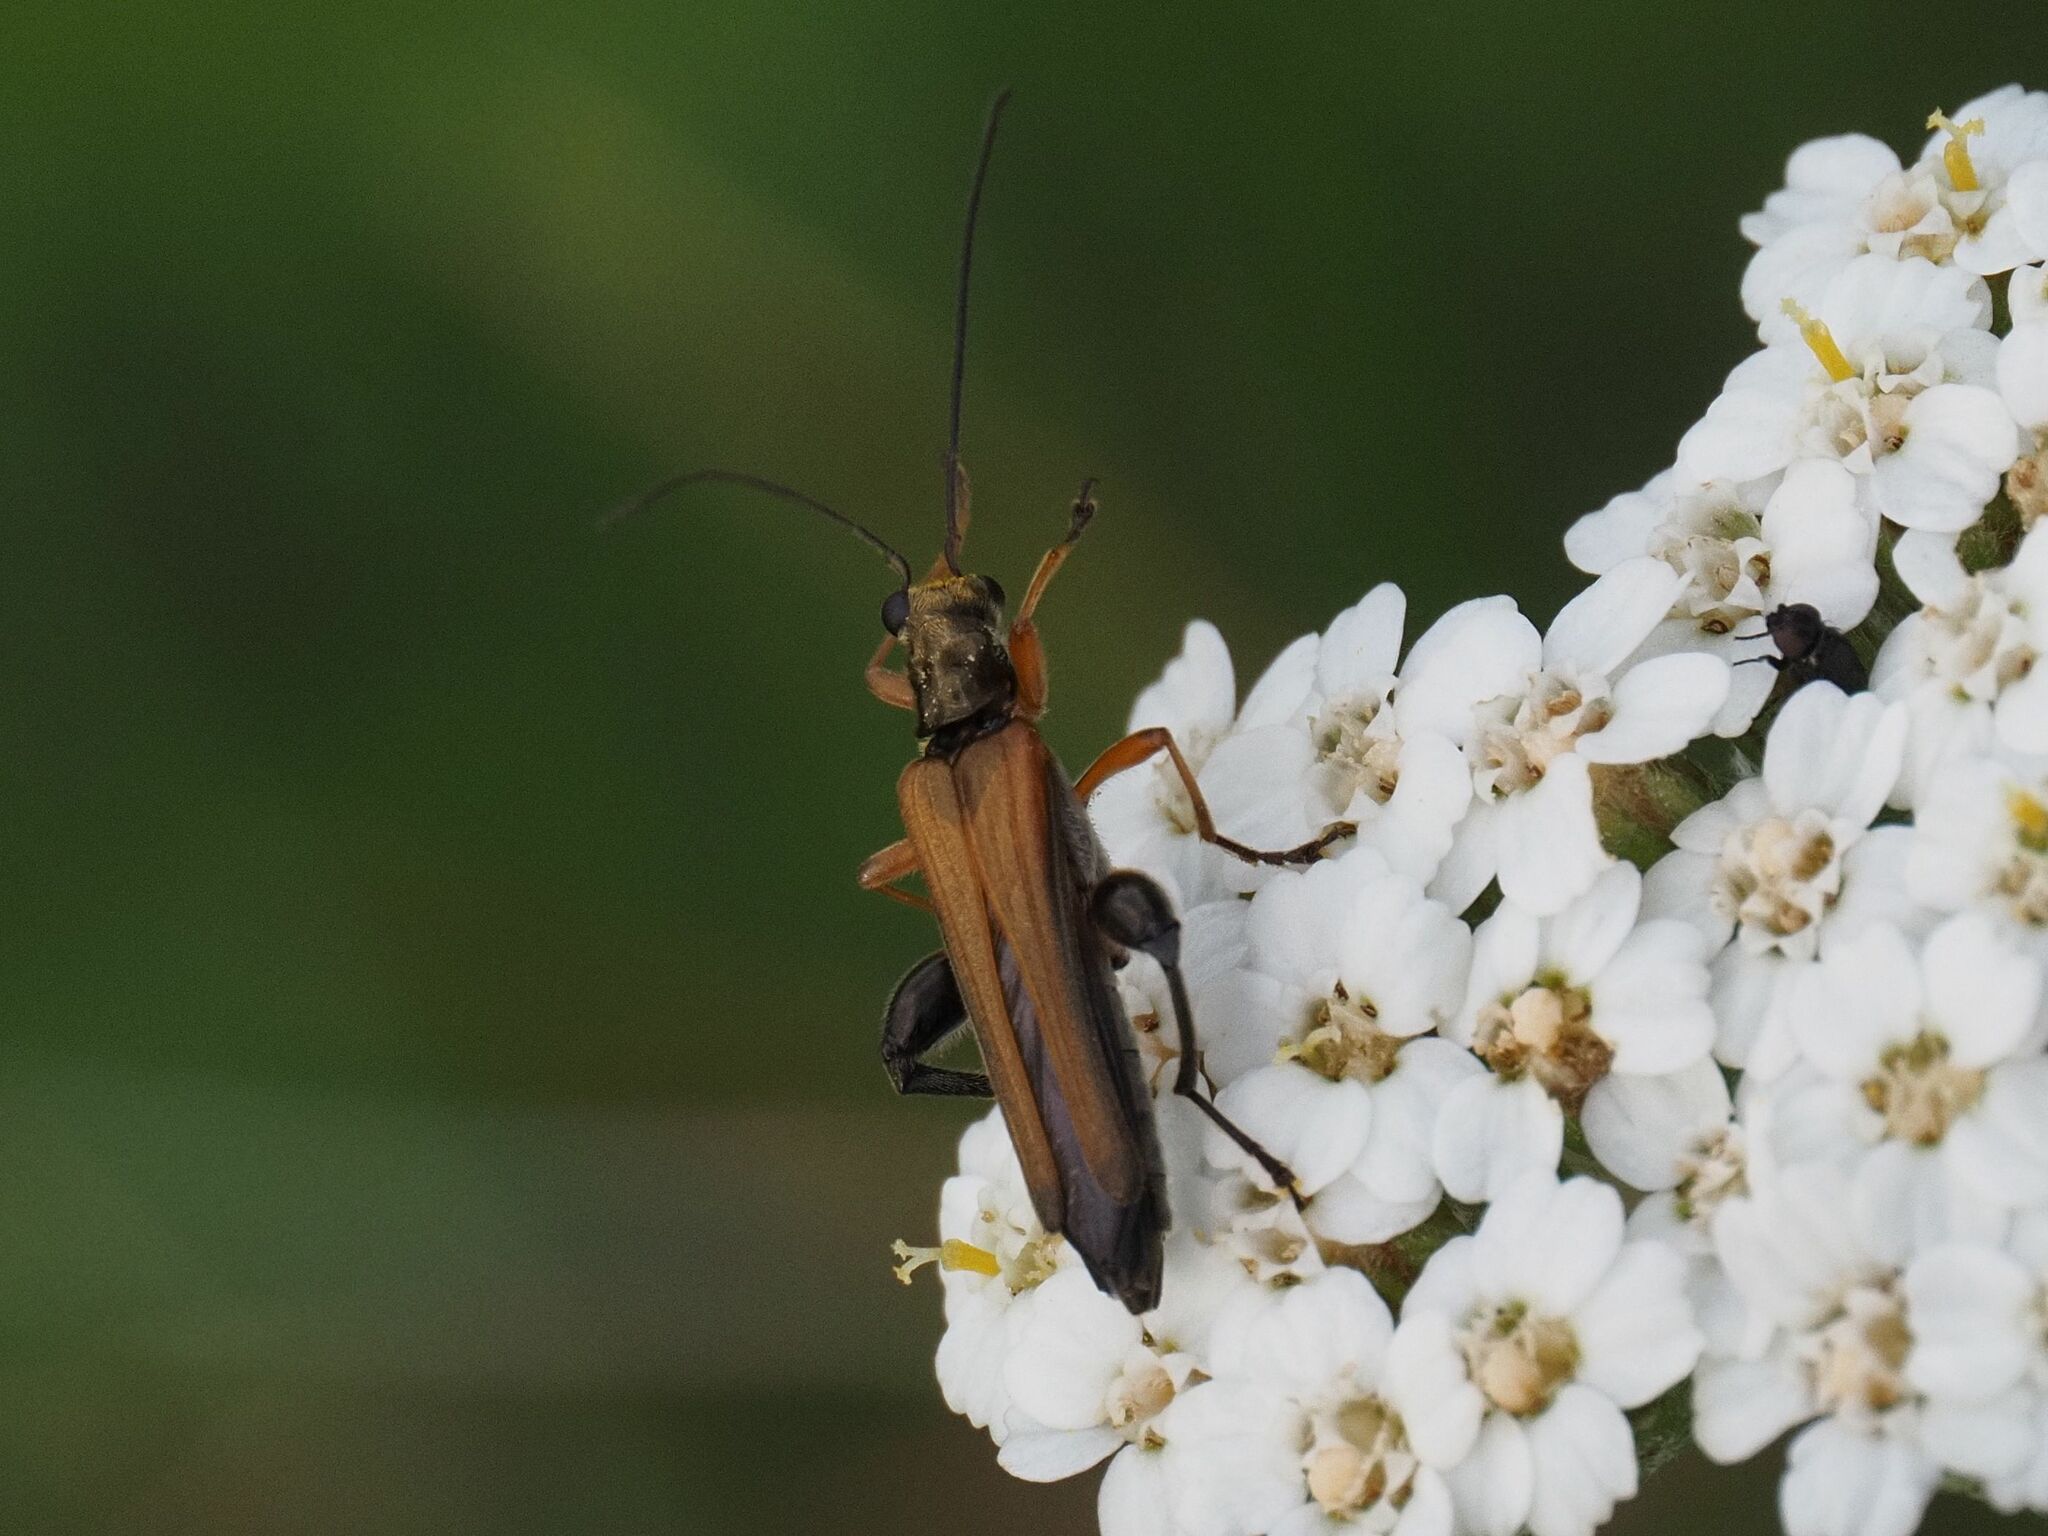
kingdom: Animalia
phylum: Arthropoda
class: Insecta
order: Coleoptera
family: Oedemeridae
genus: Oedemera
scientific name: Oedemera podagrariae
